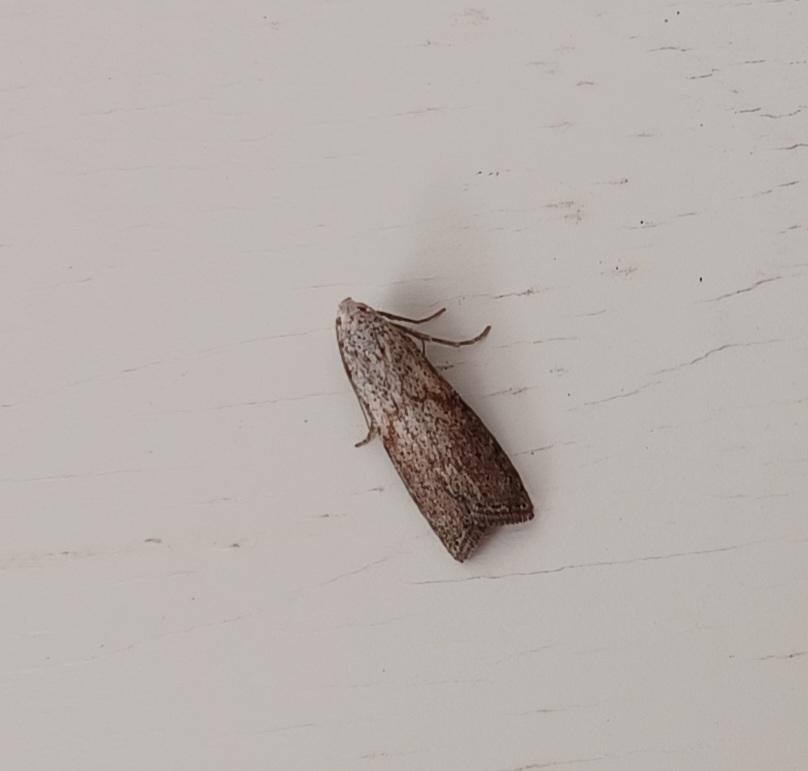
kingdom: Animalia
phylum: Arthropoda
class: Insecta
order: Lepidoptera
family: Pyralidae
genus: Aphomia
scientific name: Aphomia sociella
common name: Bee moth
